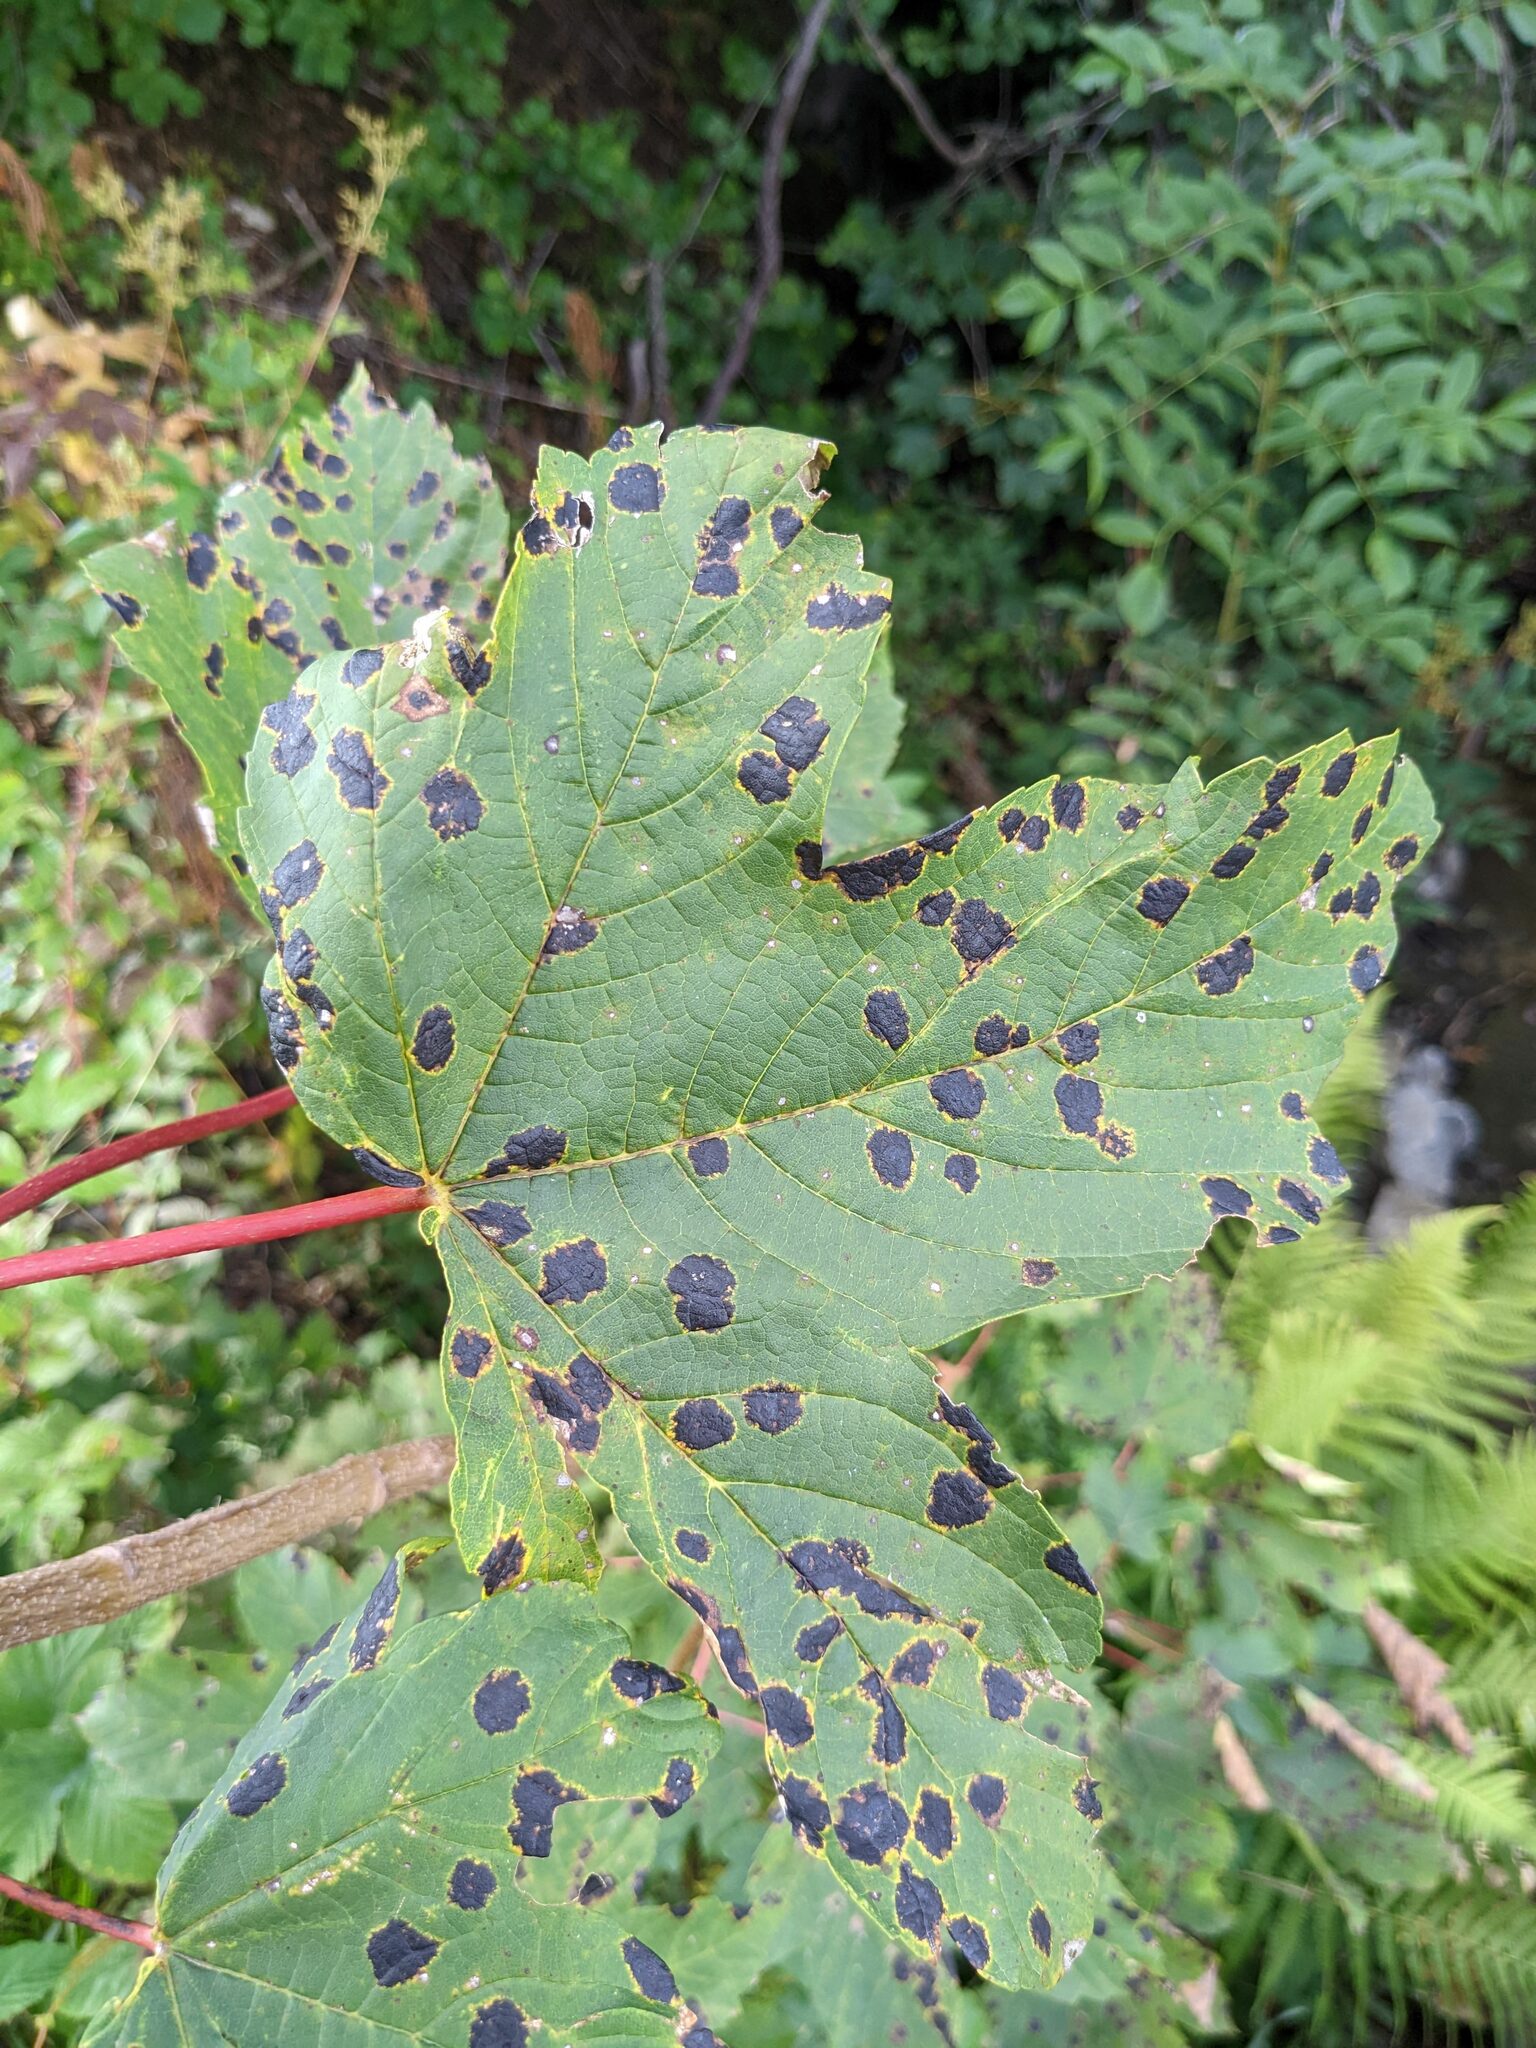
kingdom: Fungi
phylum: Ascomycota
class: Leotiomycetes
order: Rhytismatales
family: Rhytismataceae
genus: Rhytisma
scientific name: Rhytisma acerinum
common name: European tar spot
